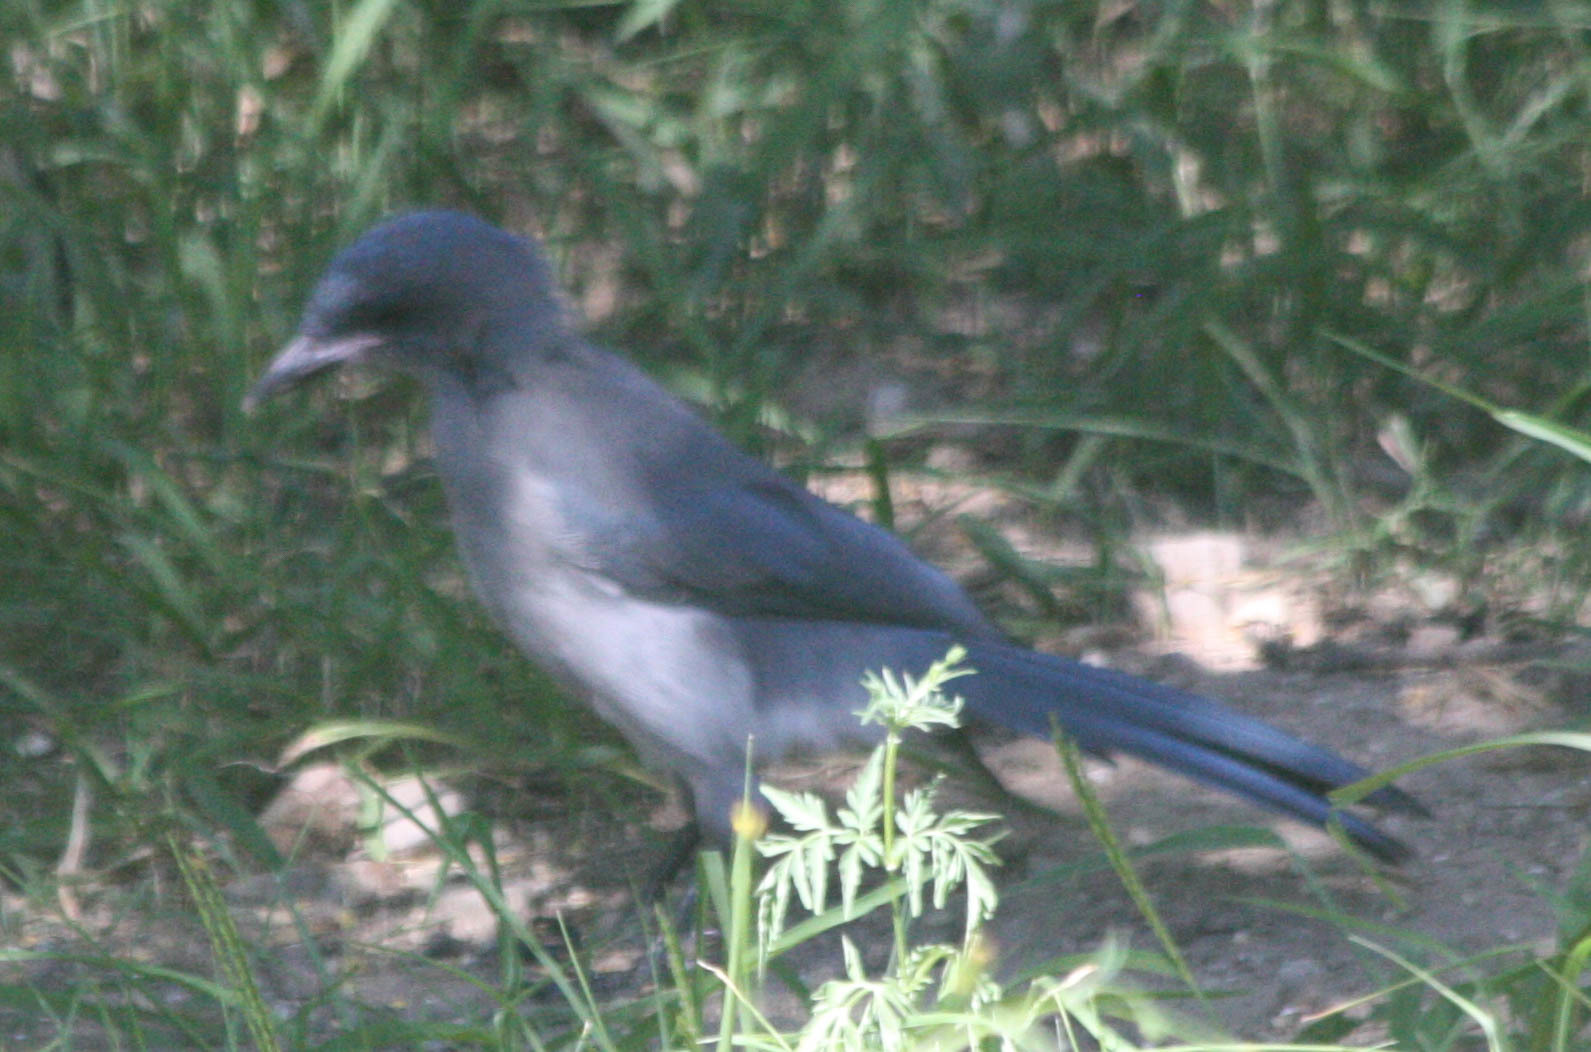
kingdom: Animalia
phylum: Chordata
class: Aves
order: Passeriformes
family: Corvidae
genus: Aphelocoma
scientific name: Aphelocoma wollweberi
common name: Mexican jay
